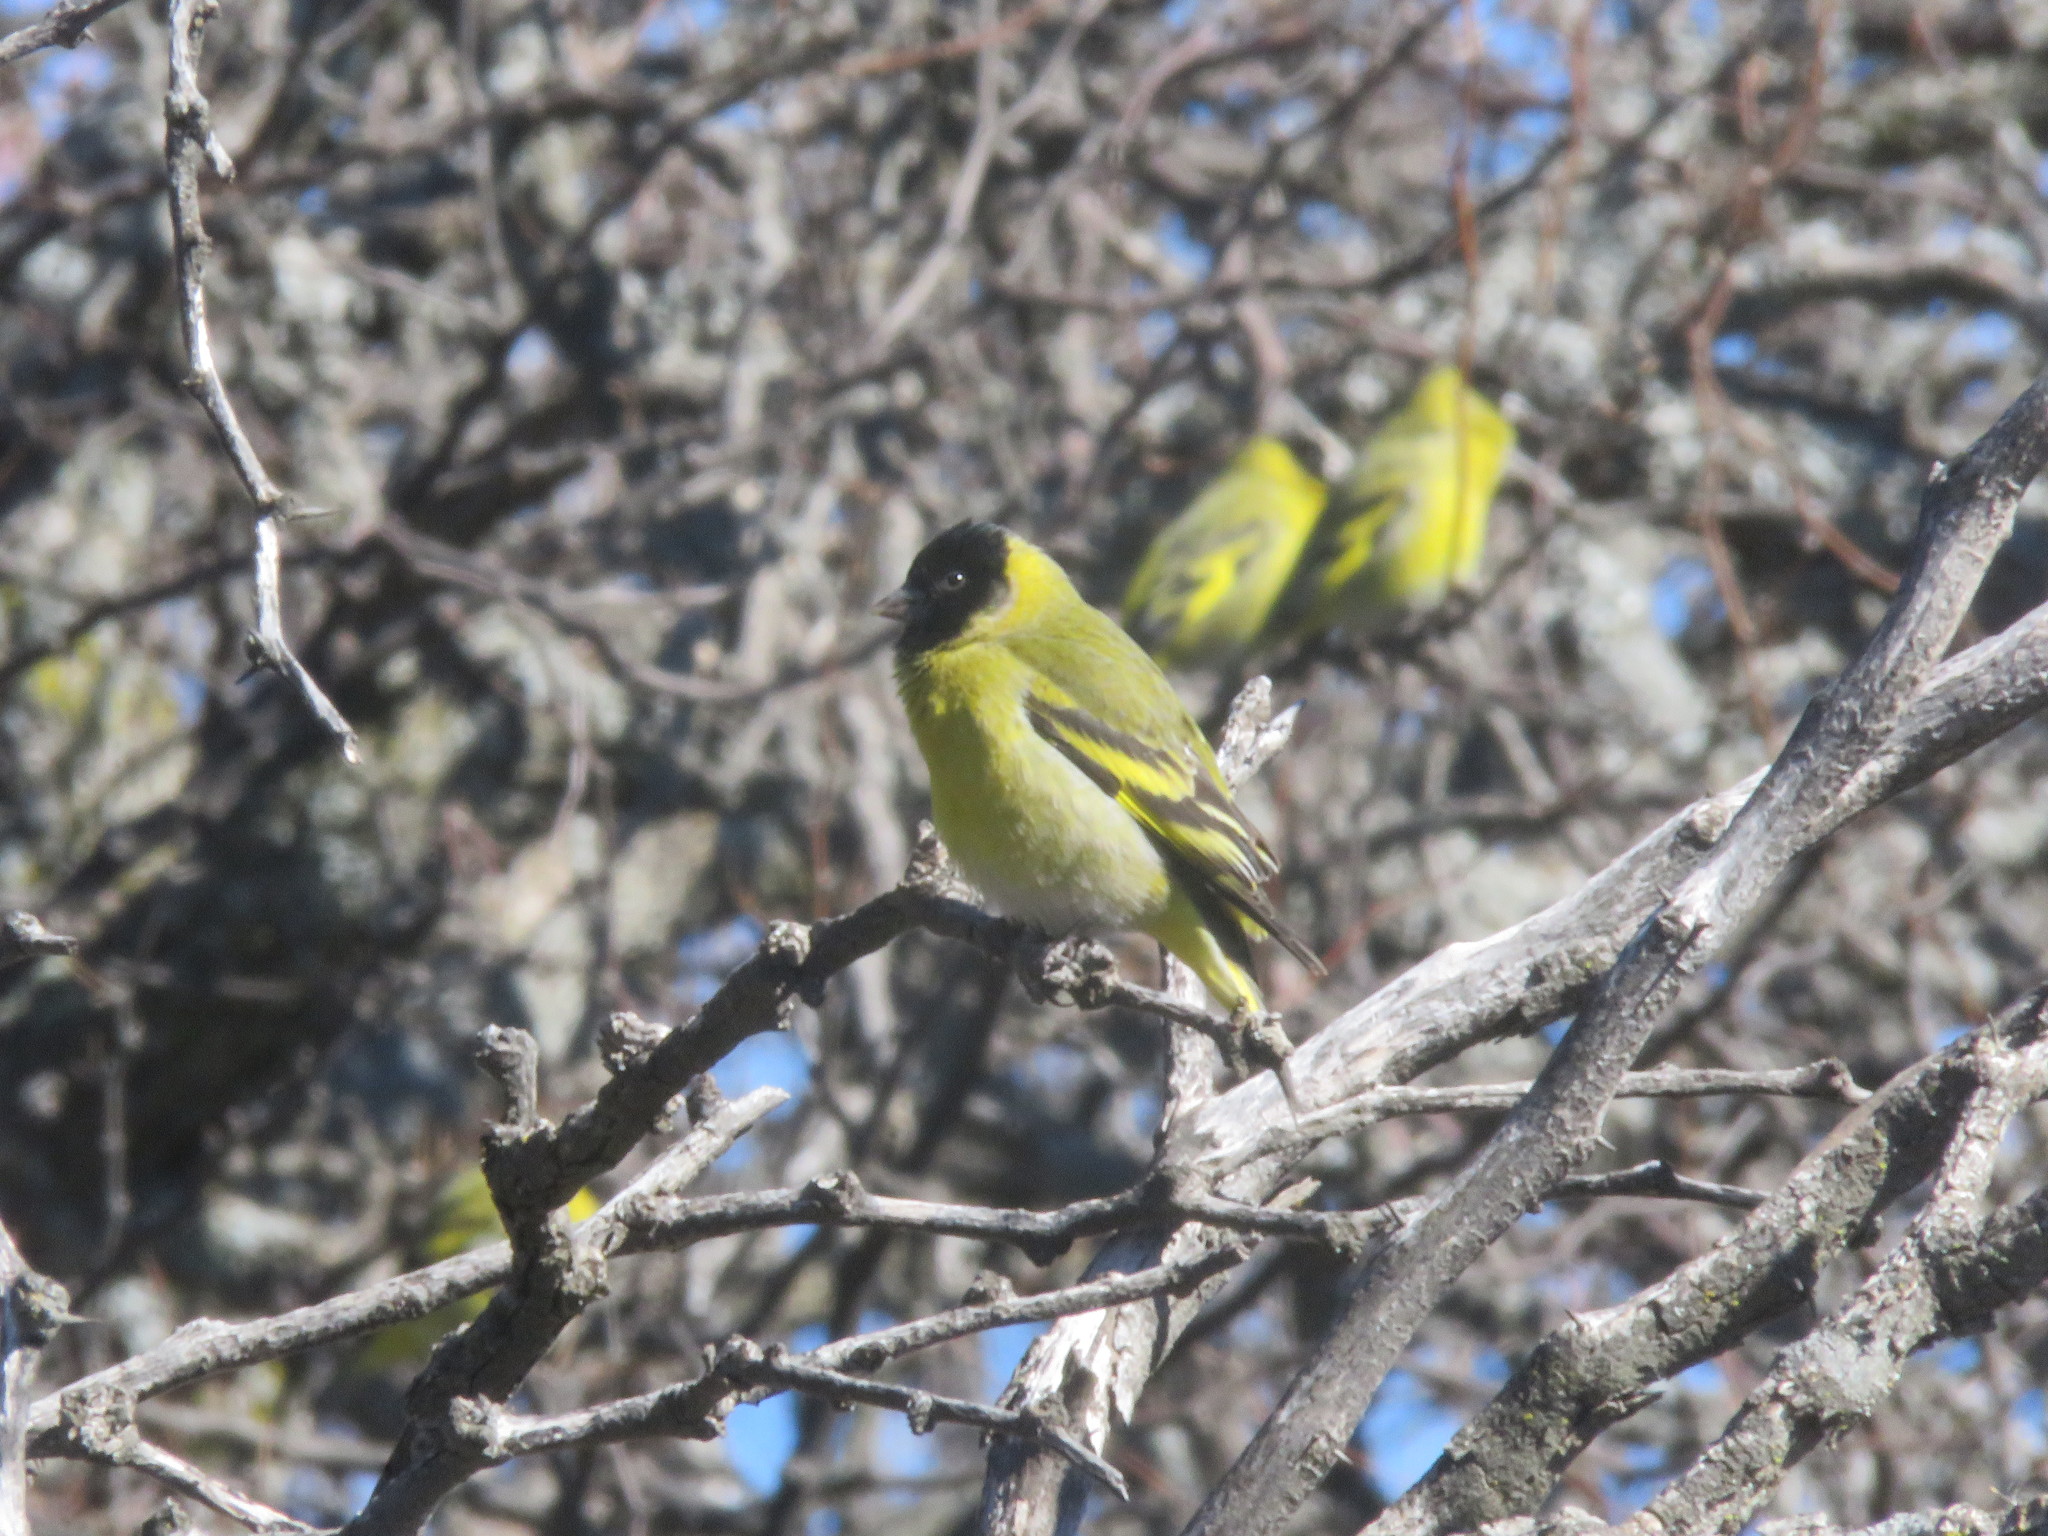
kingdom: Animalia
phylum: Chordata
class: Aves
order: Passeriformes
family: Fringillidae
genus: Spinus
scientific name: Spinus magellanicus
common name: Hooded siskin
